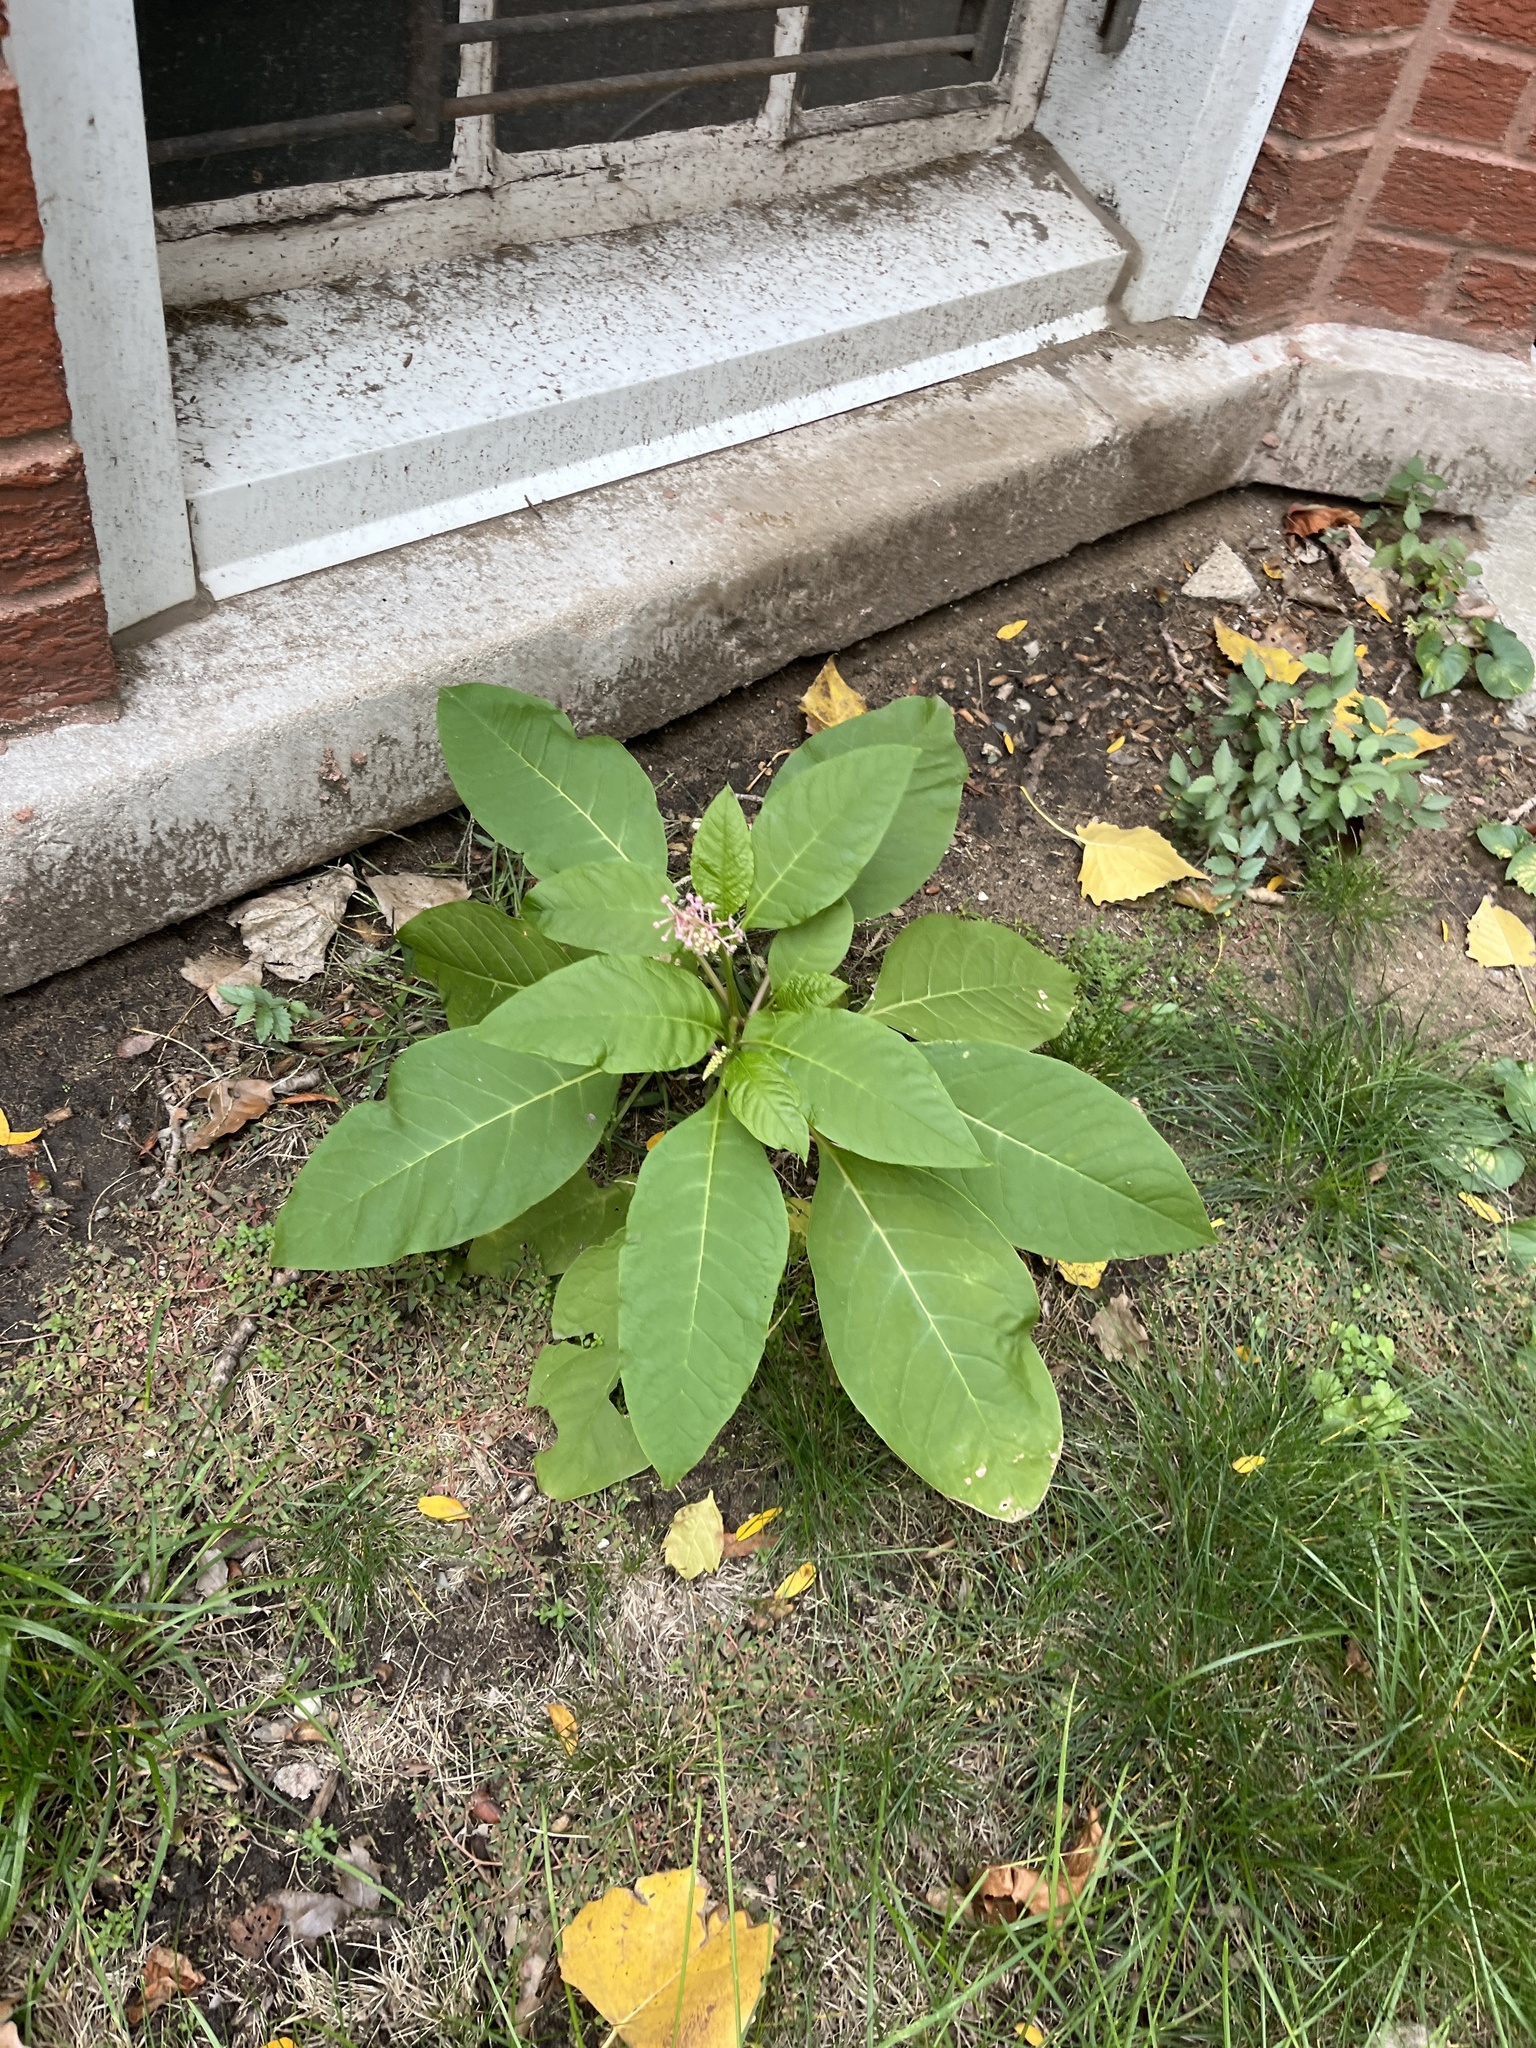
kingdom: Plantae
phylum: Tracheophyta
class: Magnoliopsida
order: Caryophyllales
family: Phytolaccaceae
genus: Phytolacca
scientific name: Phytolacca americana
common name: American pokeweed
